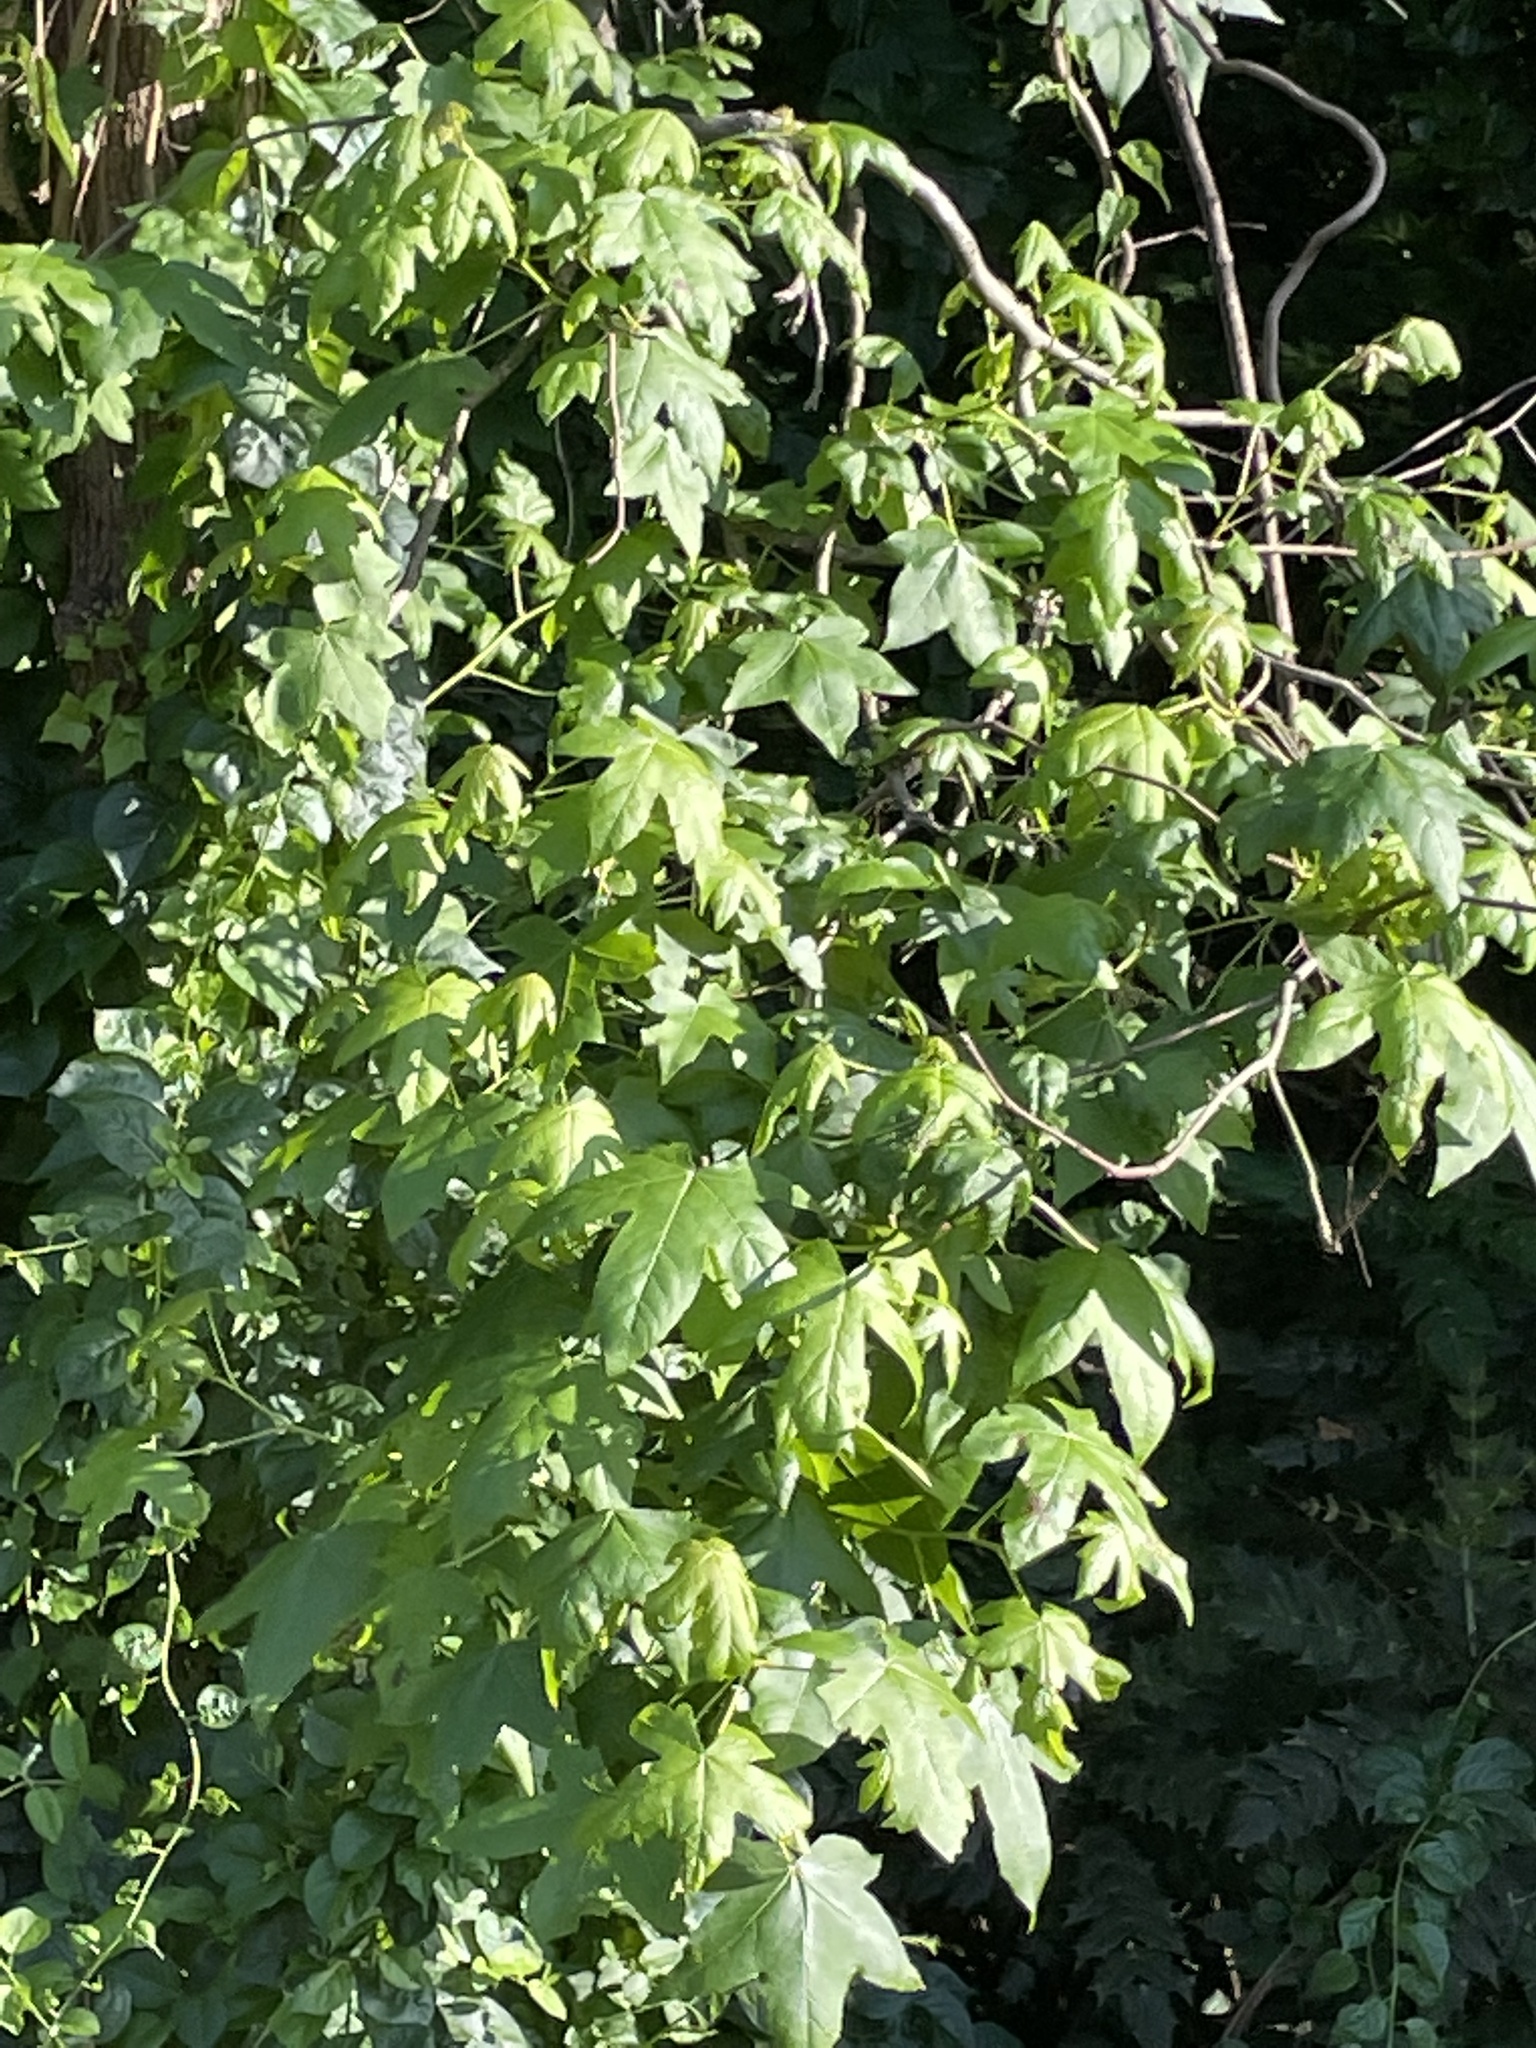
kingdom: Plantae
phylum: Tracheophyta
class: Magnoliopsida
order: Saxifragales
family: Altingiaceae
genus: Liquidambar
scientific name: Liquidambar styraciflua
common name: Sweet gum
